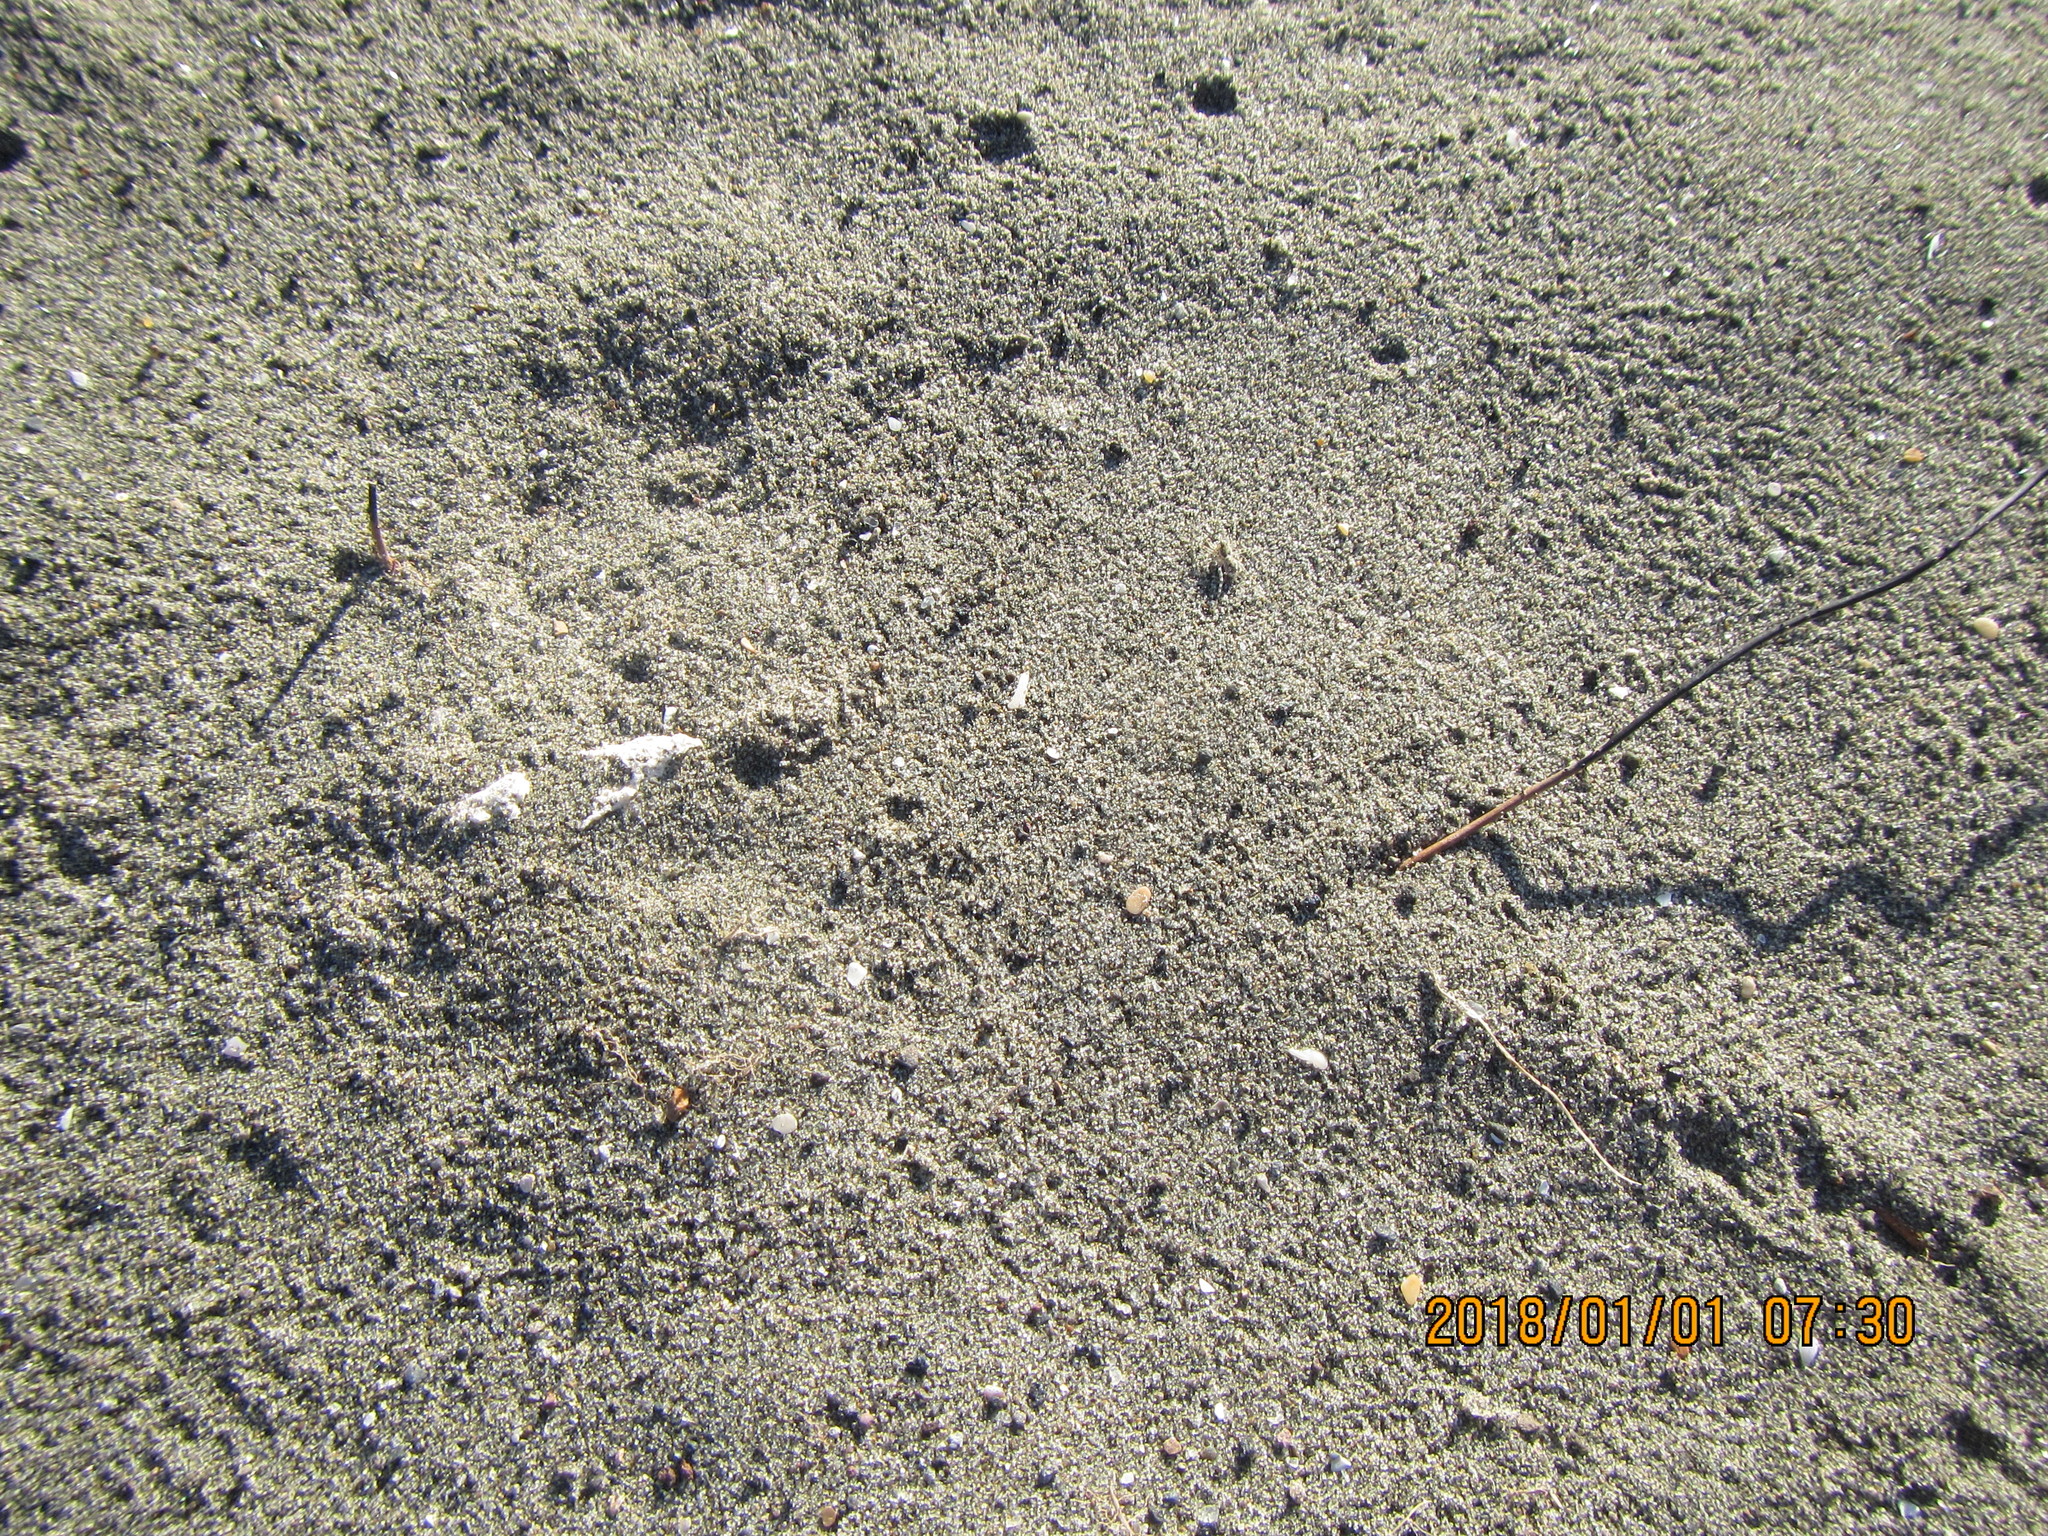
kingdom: Animalia
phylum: Arthropoda
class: Arachnida
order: Araneae
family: Lycosidae
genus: Anoteropsis
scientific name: Anoteropsis litoralis
